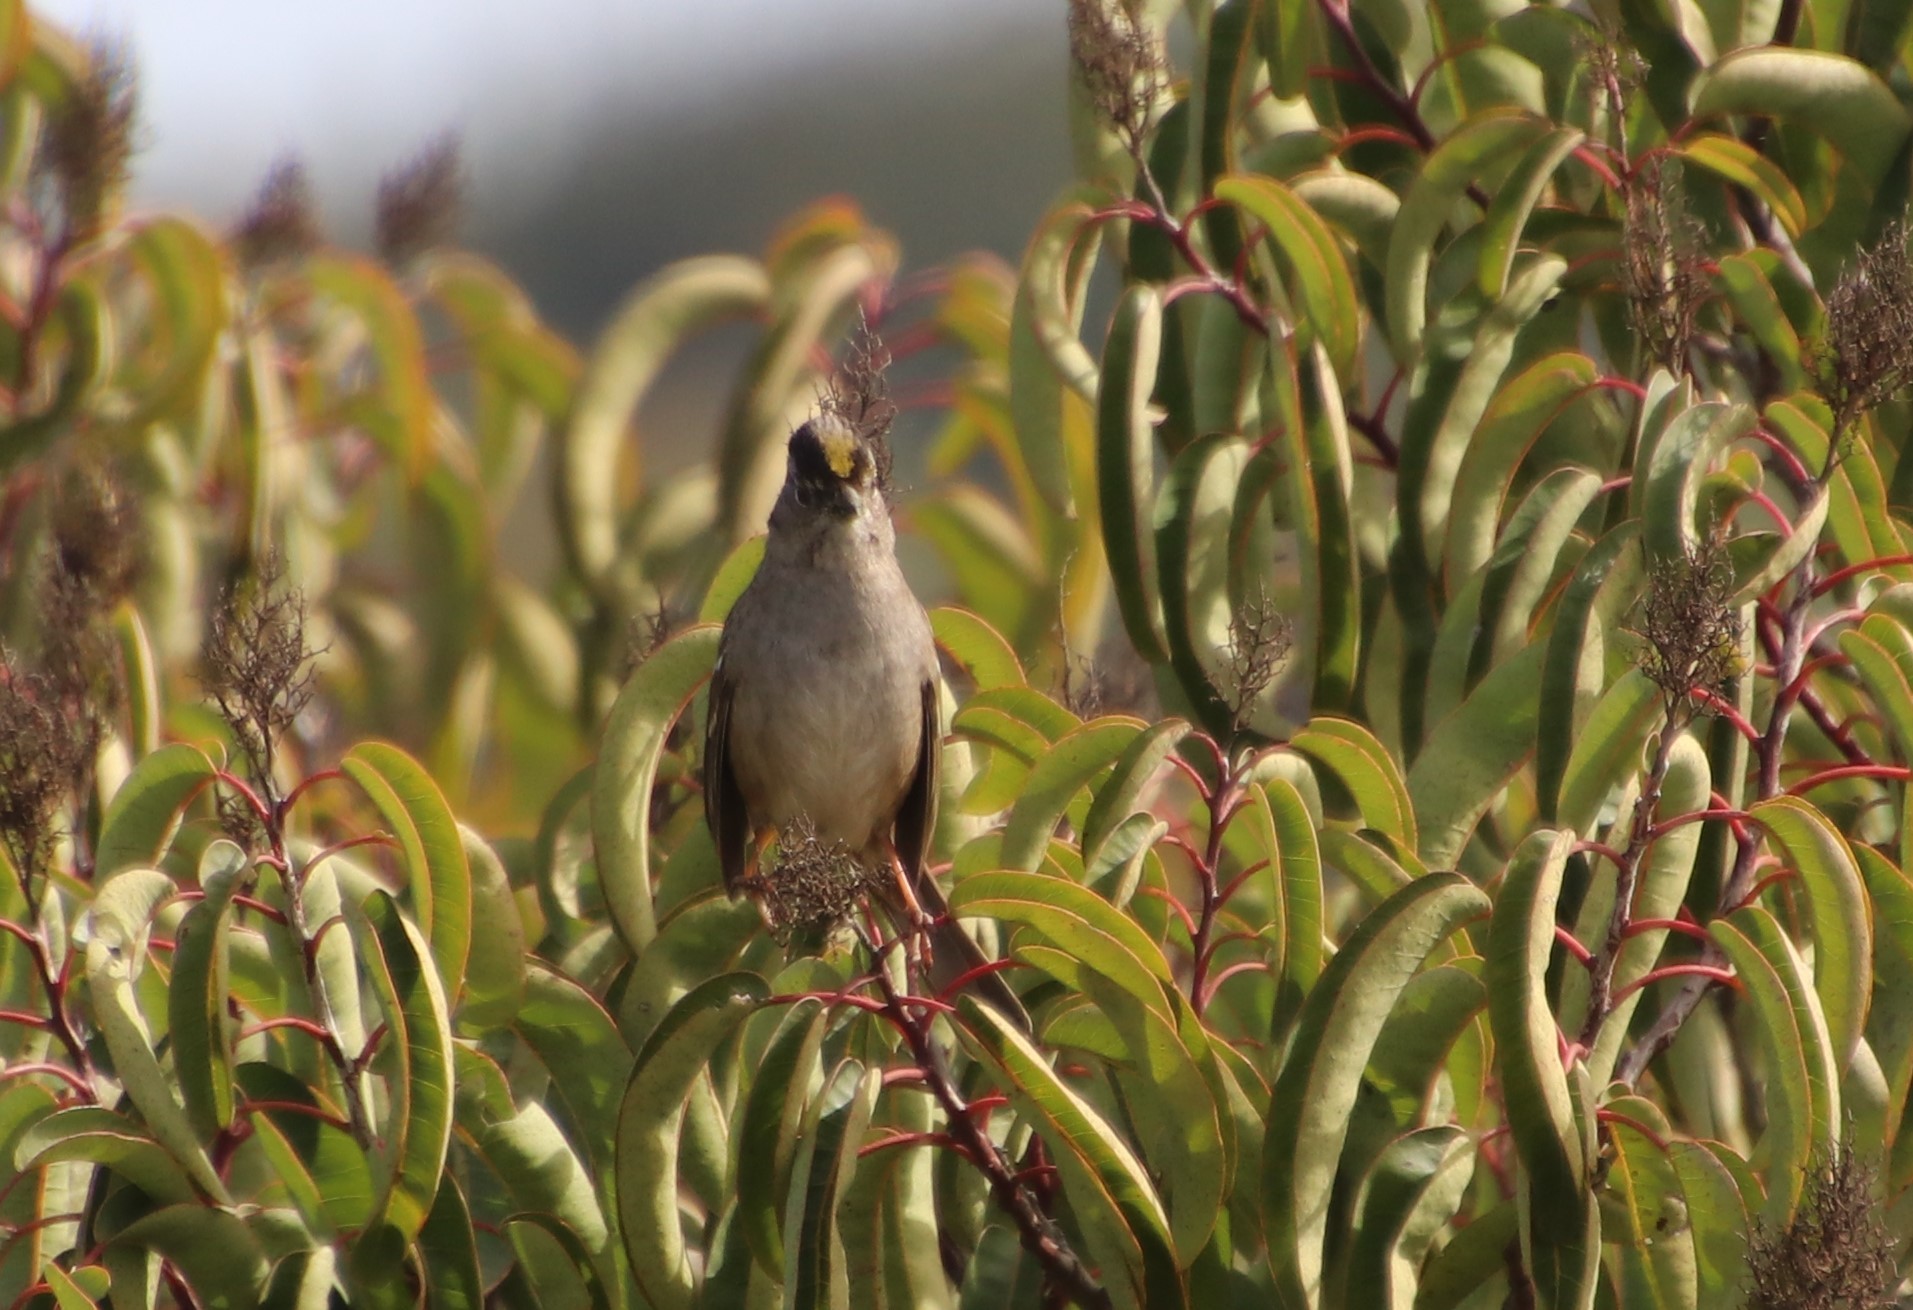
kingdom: Animalia
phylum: Chordata
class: Aves
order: Passeriformes
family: Passerellidae
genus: Zonotrichia
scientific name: Zonotrichia atricapilla
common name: Golden-crowned sparrow
